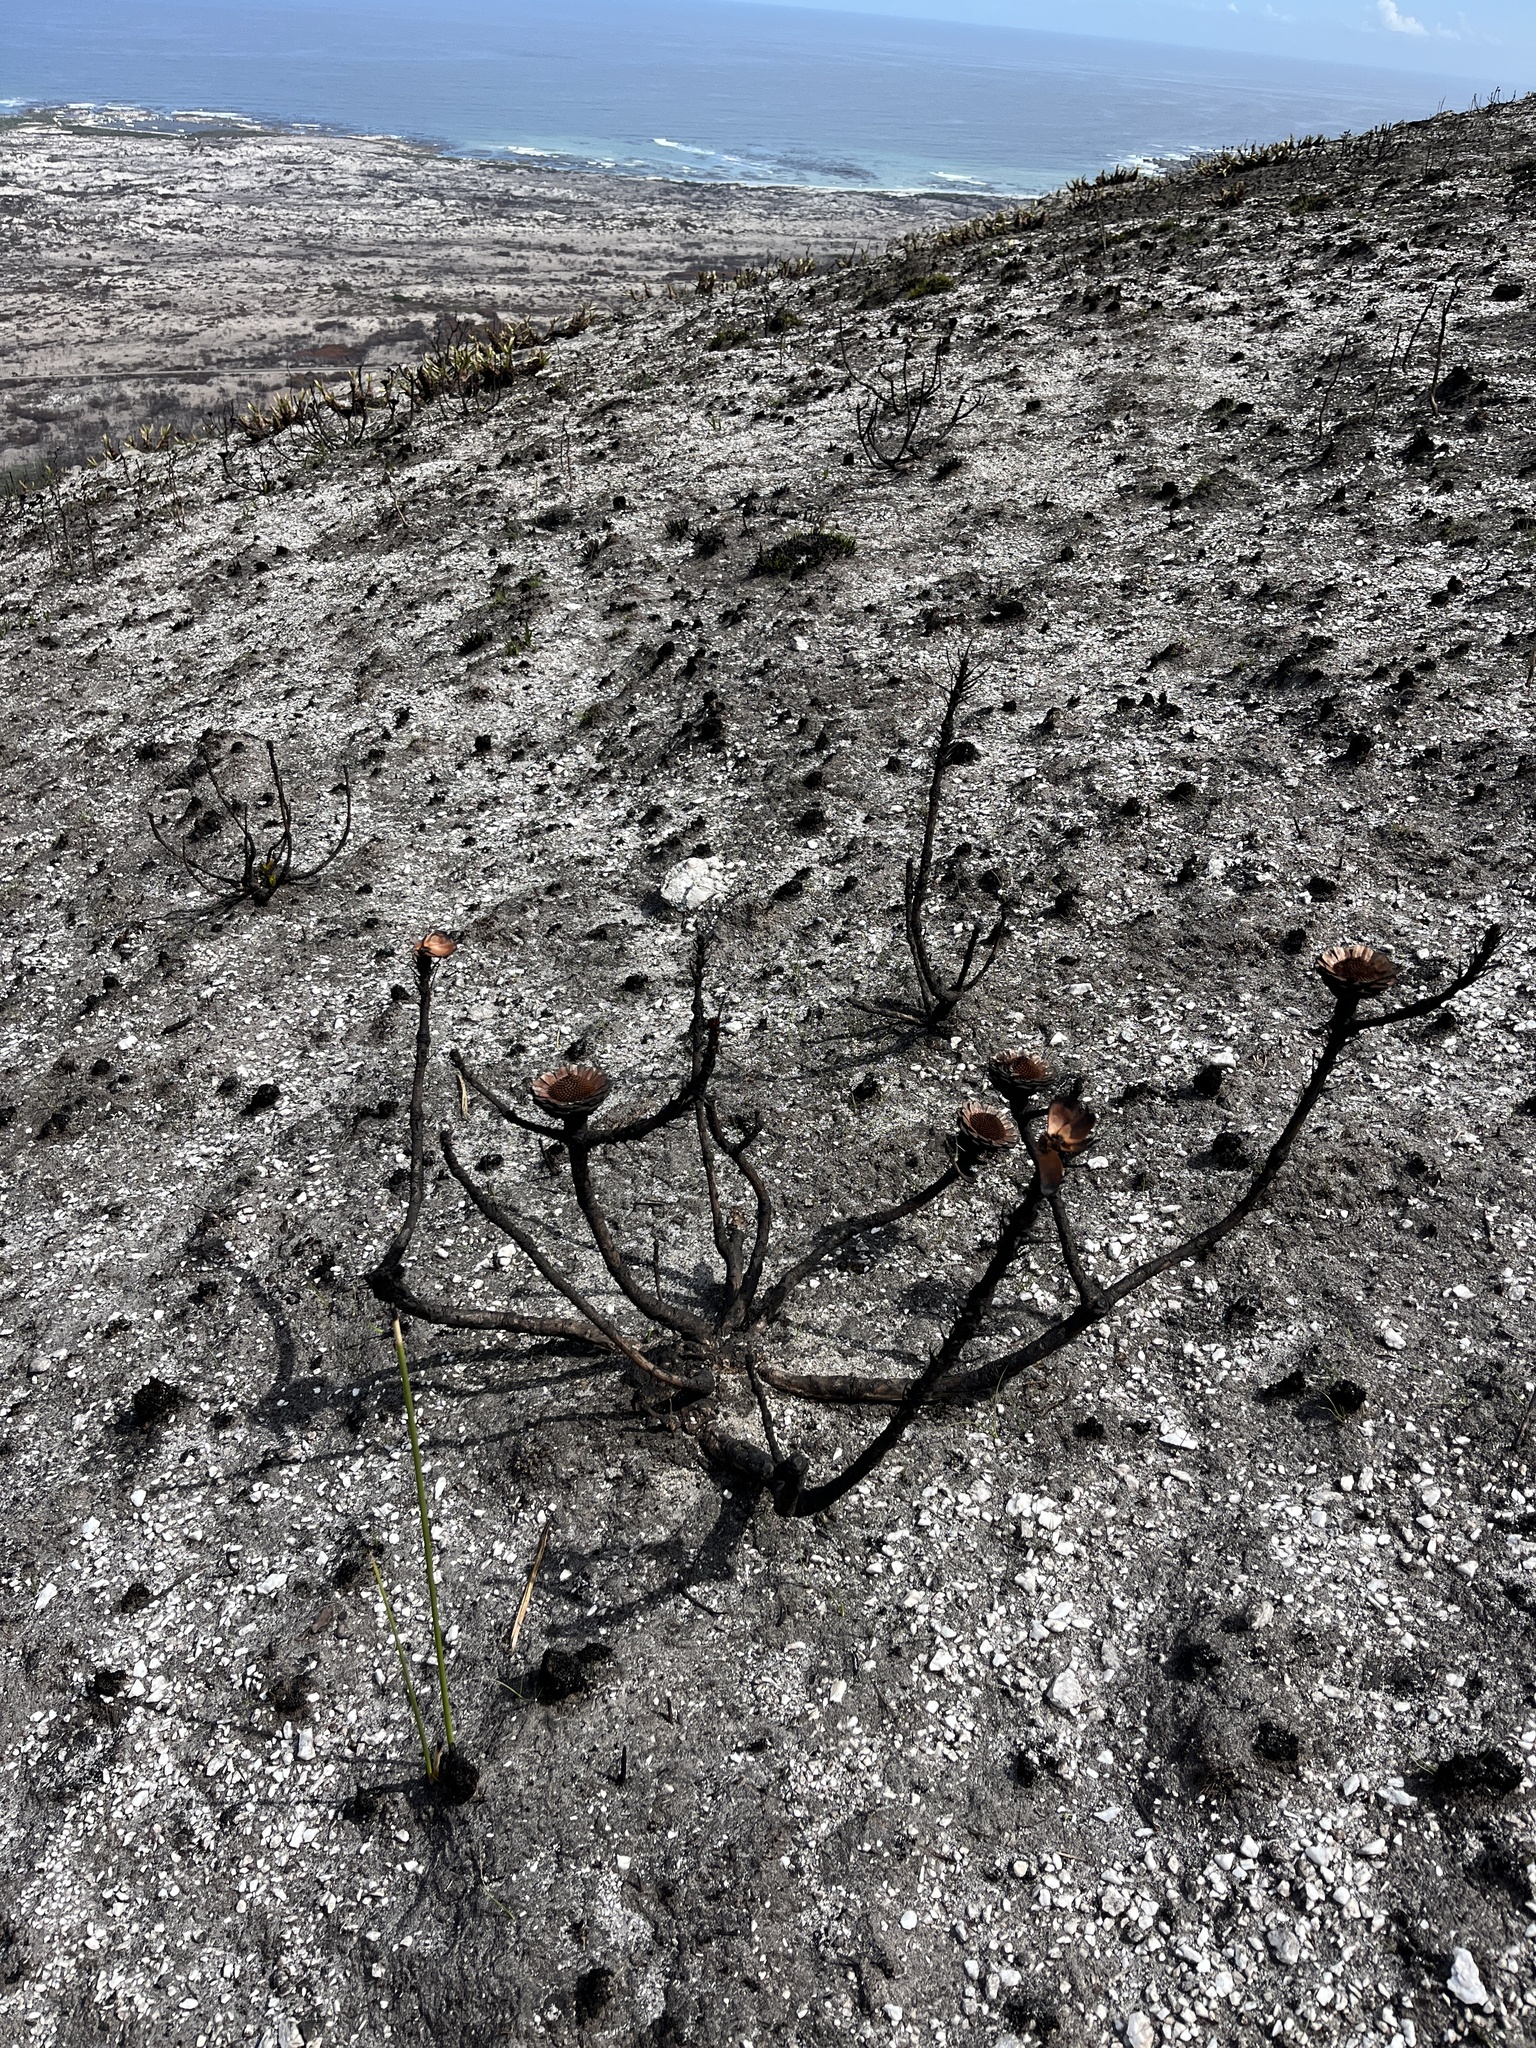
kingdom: Plantae
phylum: Tracheophyta
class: Magnoliopsida
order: Proteales
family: Proteaceae
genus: Protea
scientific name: Protea cynaroides
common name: King protea
